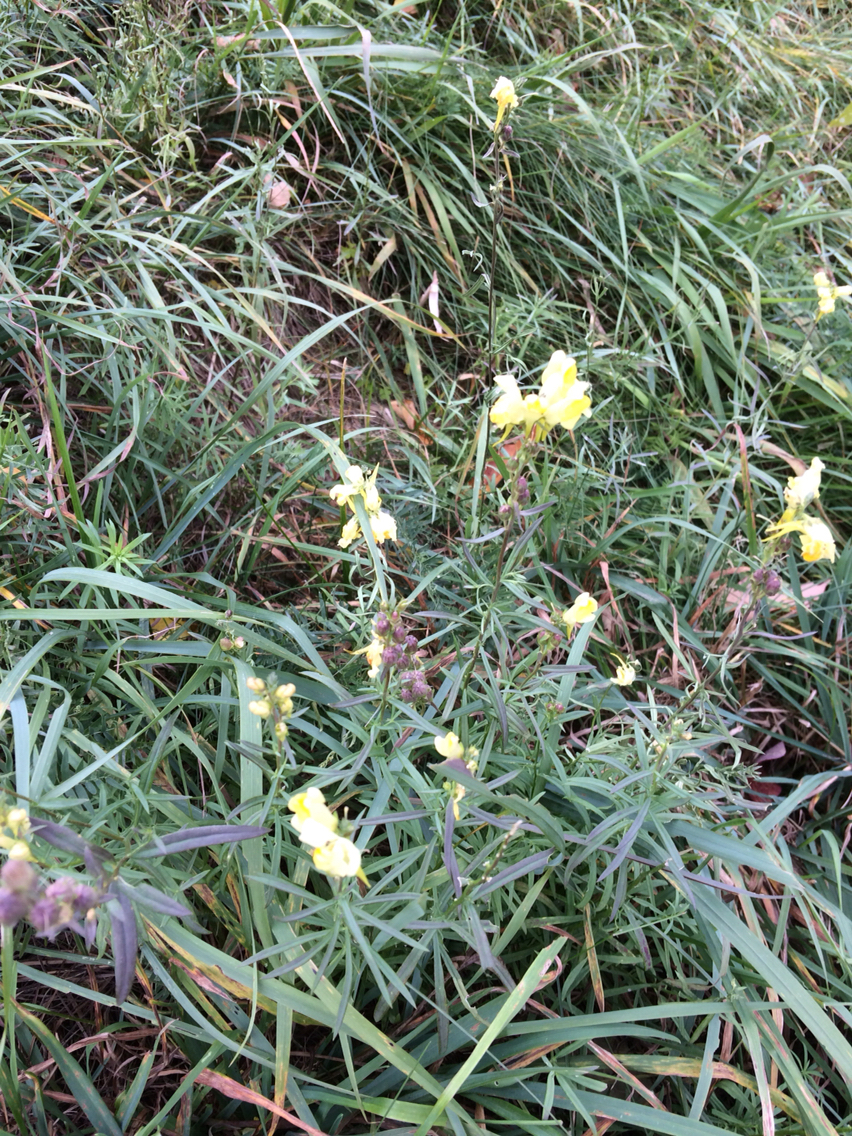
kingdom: Plantae
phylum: Tracheophyta
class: Magnoliopsida
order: Lamiales
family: Plantaginaceae
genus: Linaria
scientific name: Linaria vulgaris
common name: Butter and eggs
